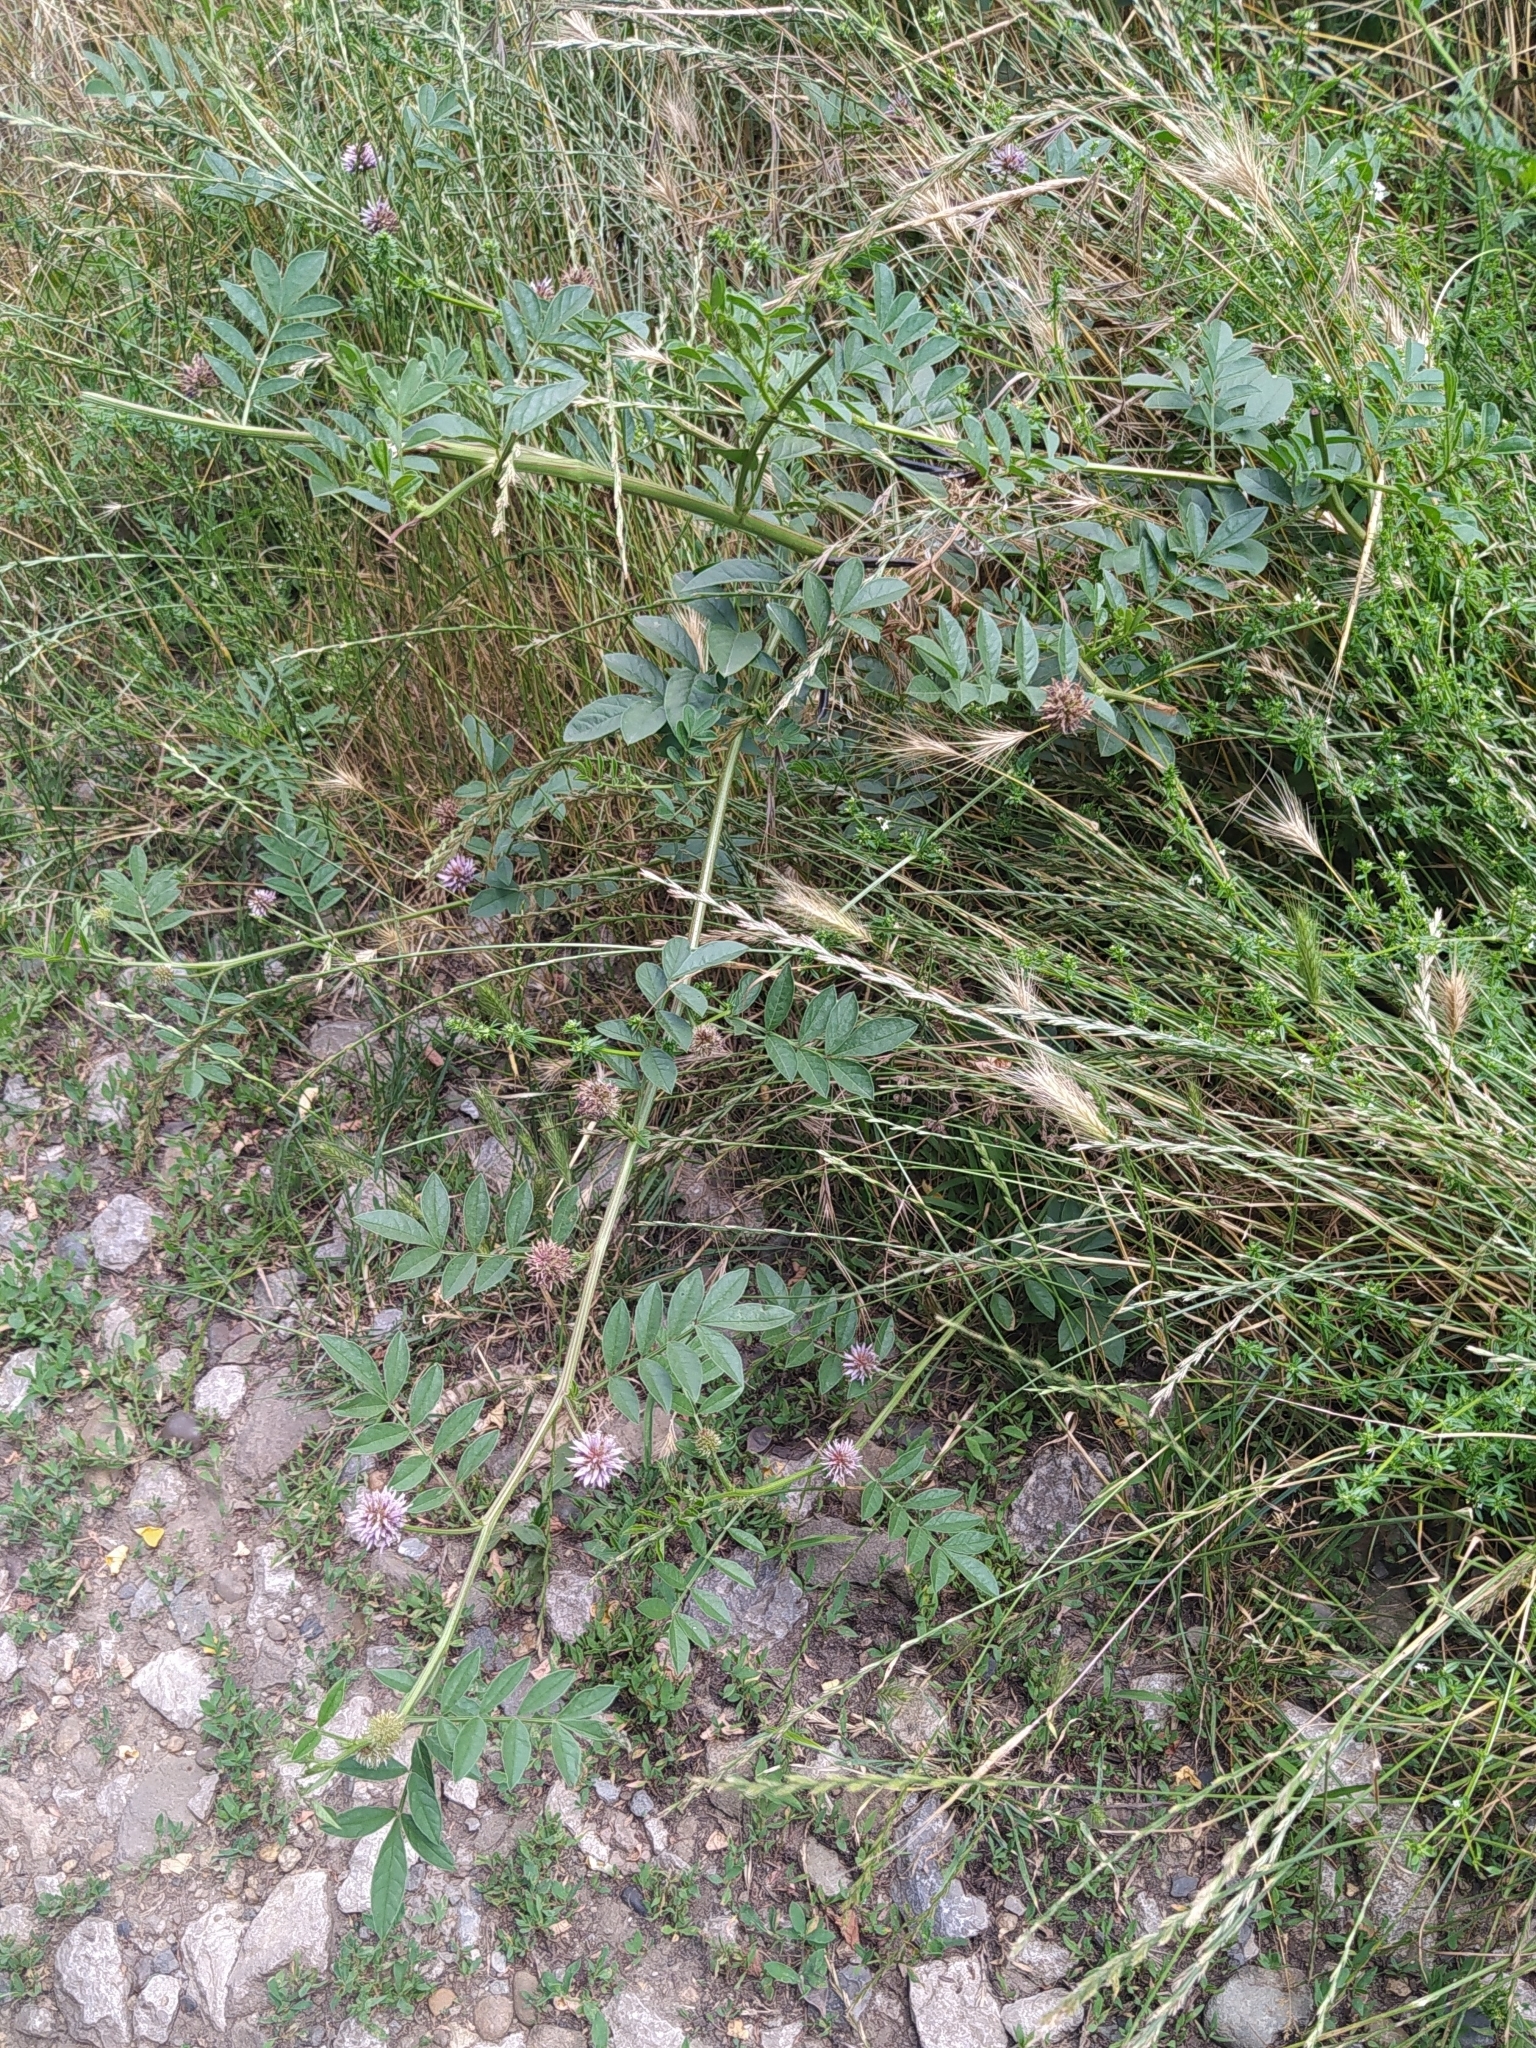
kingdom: Plantae
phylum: Tracheophyta
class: Magnoliopsida
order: Fabales
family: Fabaceae
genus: Glycyrrhiza
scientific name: Glycyrrhiza echinata
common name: German liquorice
